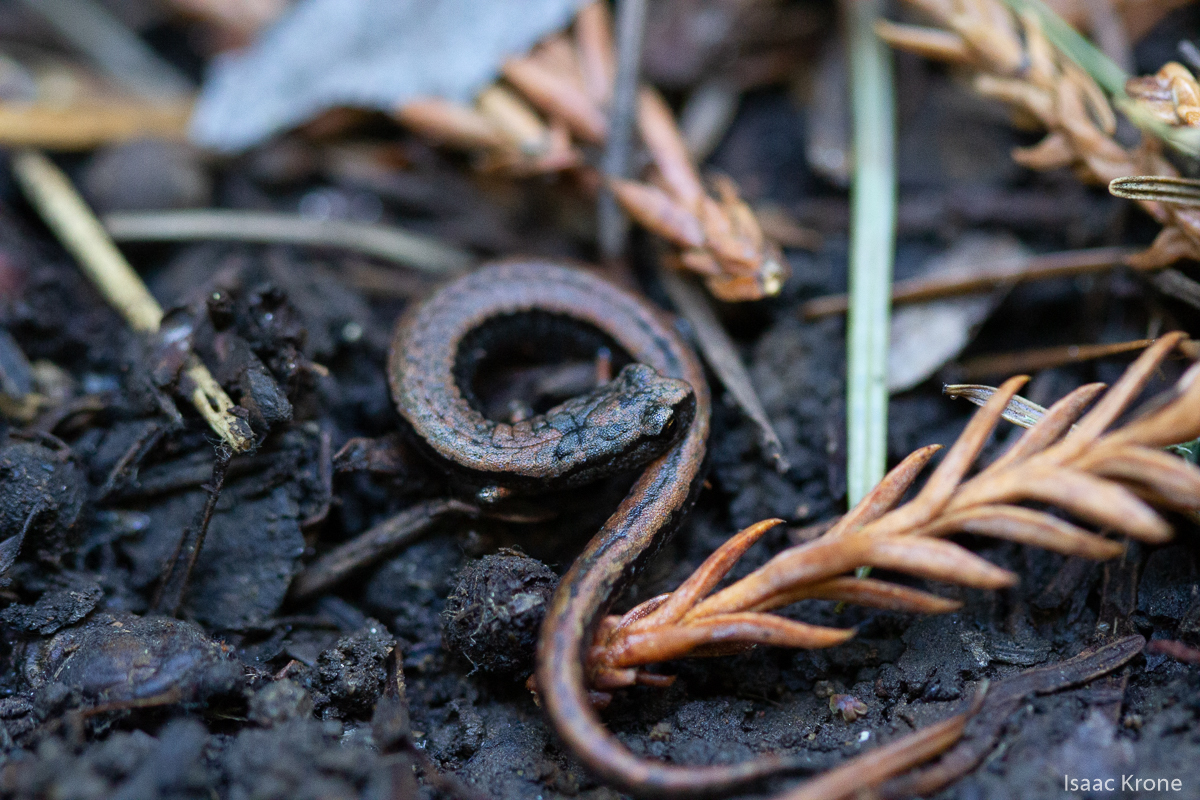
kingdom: Animalia
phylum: Chordata
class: Amphibia
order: Caudata
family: Plethodontidae
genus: Batrachoseps
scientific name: Batrachoseps attenuatus
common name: California slender salamander
